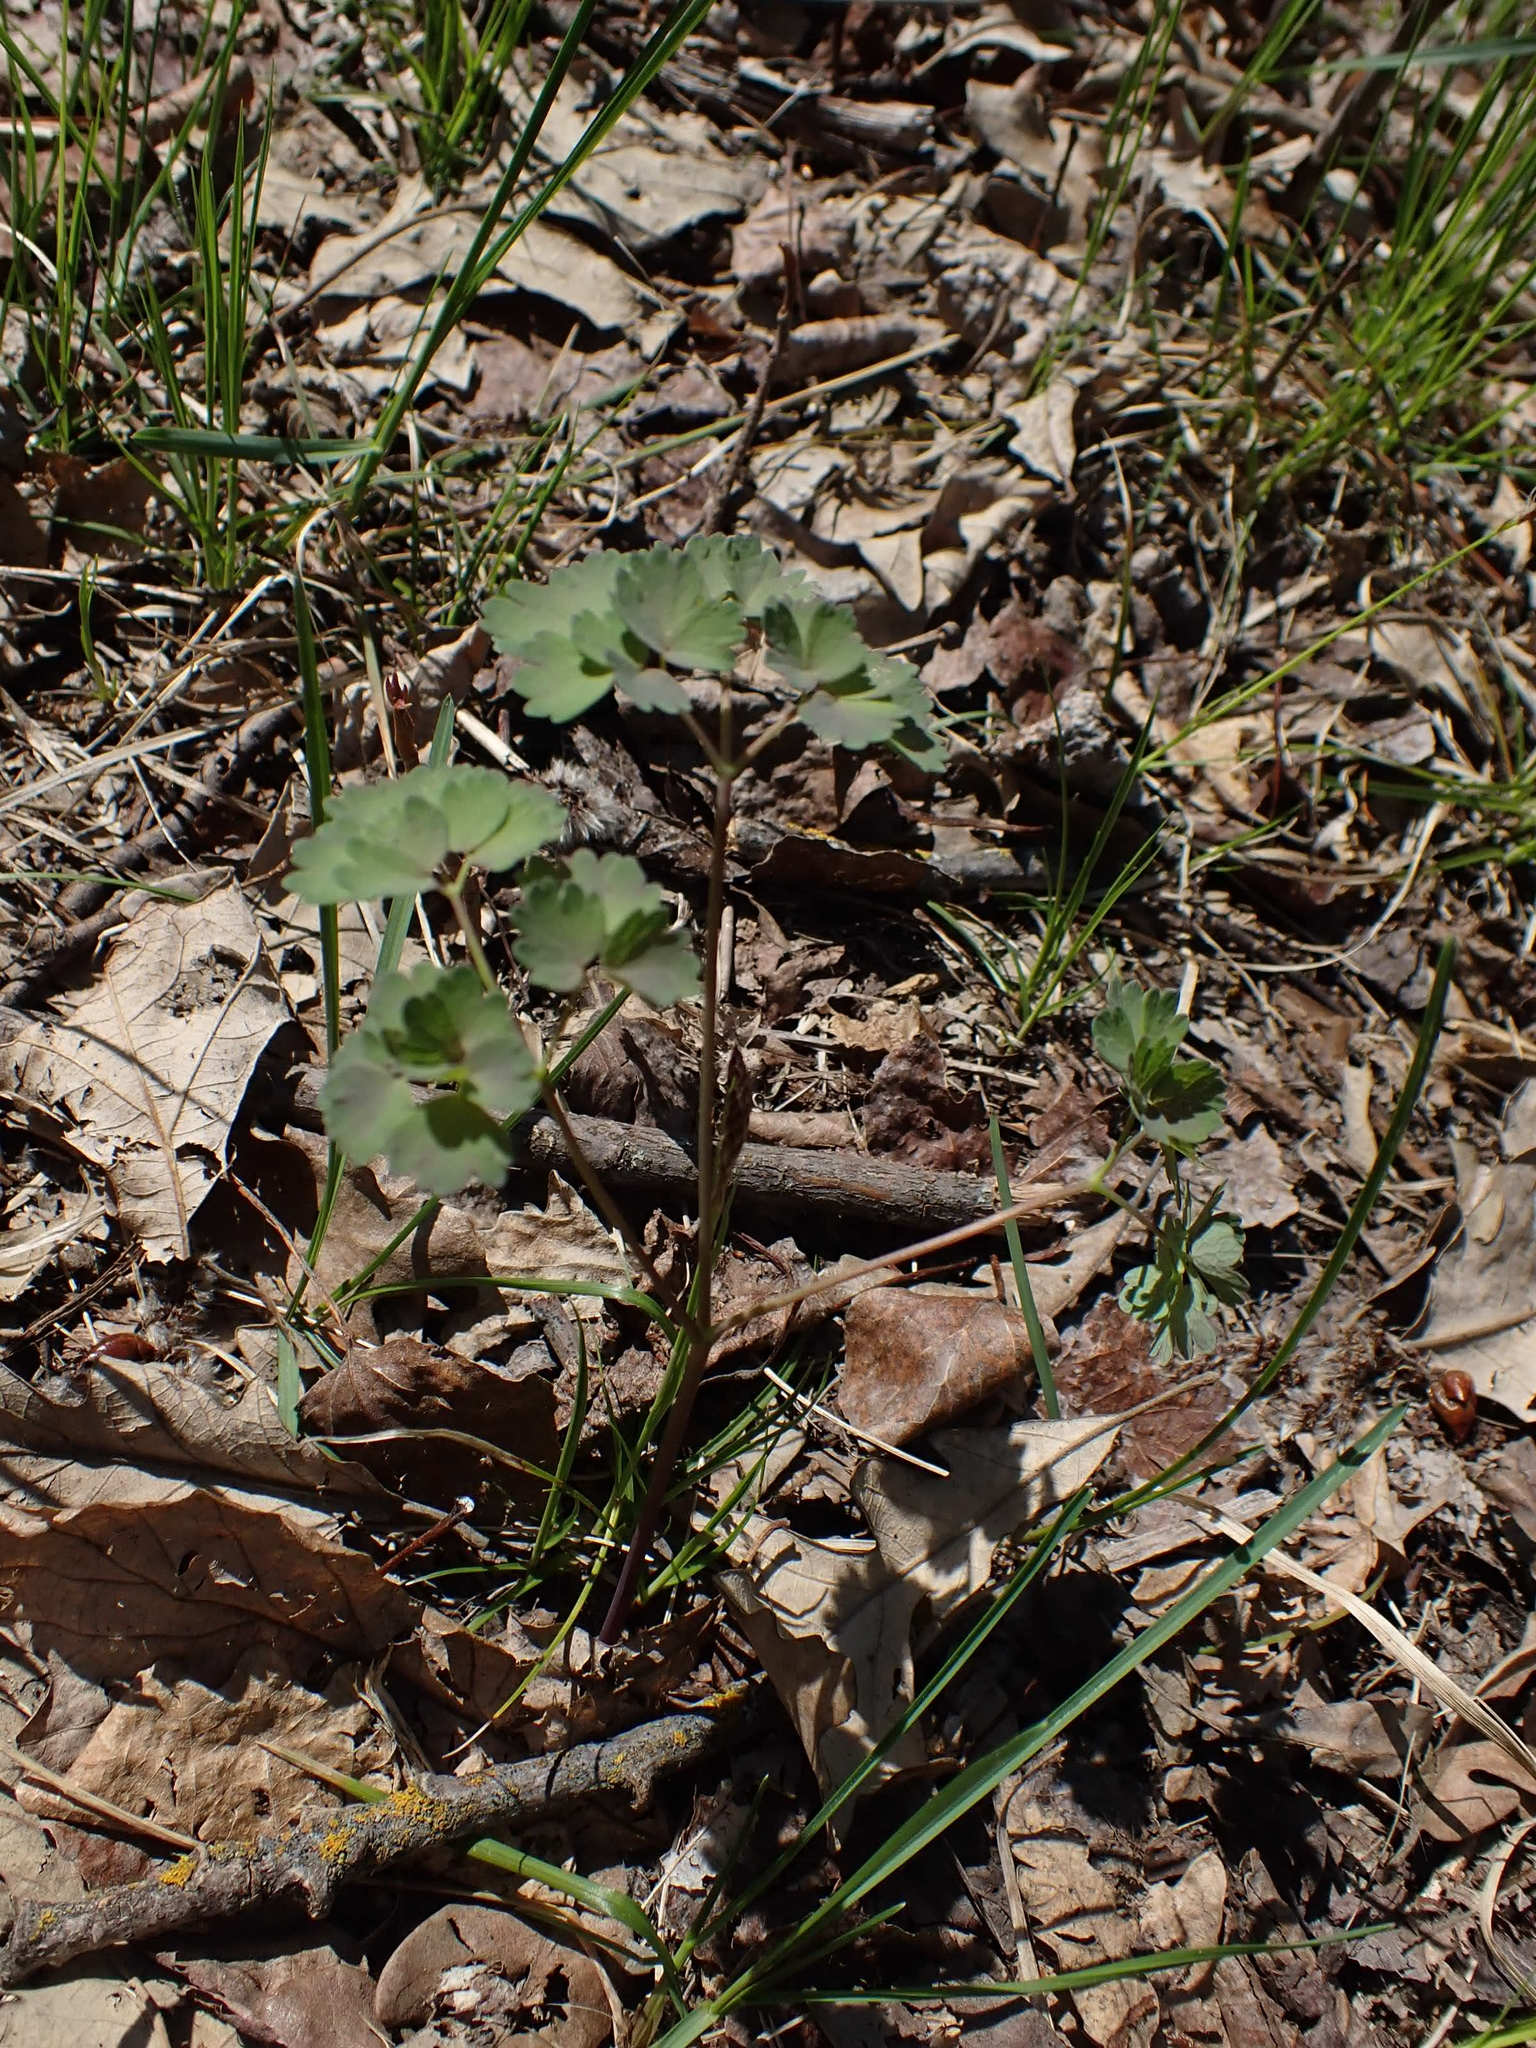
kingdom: Plantae
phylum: Tracheophyta
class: Magnoliopsida
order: Ranunculales
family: Ranunculaceae
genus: Thalictrum
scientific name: Thalictrum venulosum
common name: Early meadow-rue
